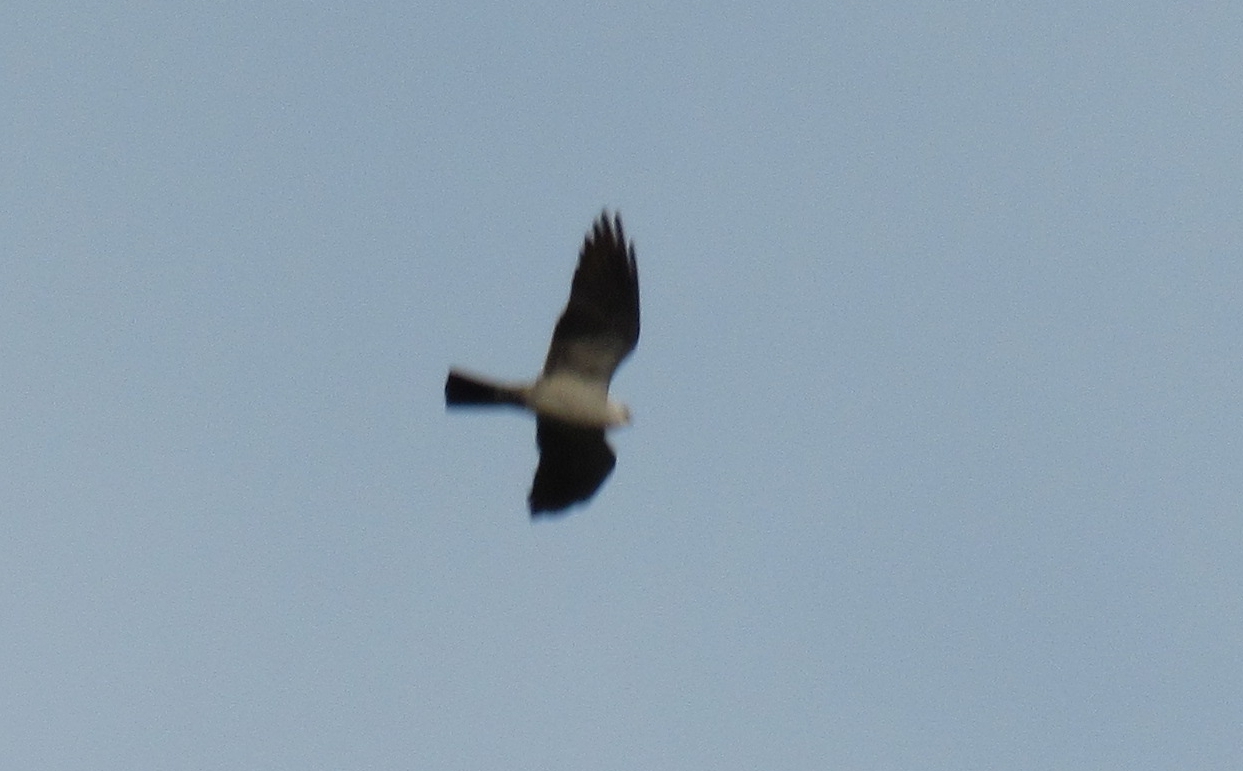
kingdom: Animalia
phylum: Chordata
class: Aves
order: Accipitriformes
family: Accipitridae
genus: Ictinia
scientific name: Ictinia mississippiensis
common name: Mississippi kite
